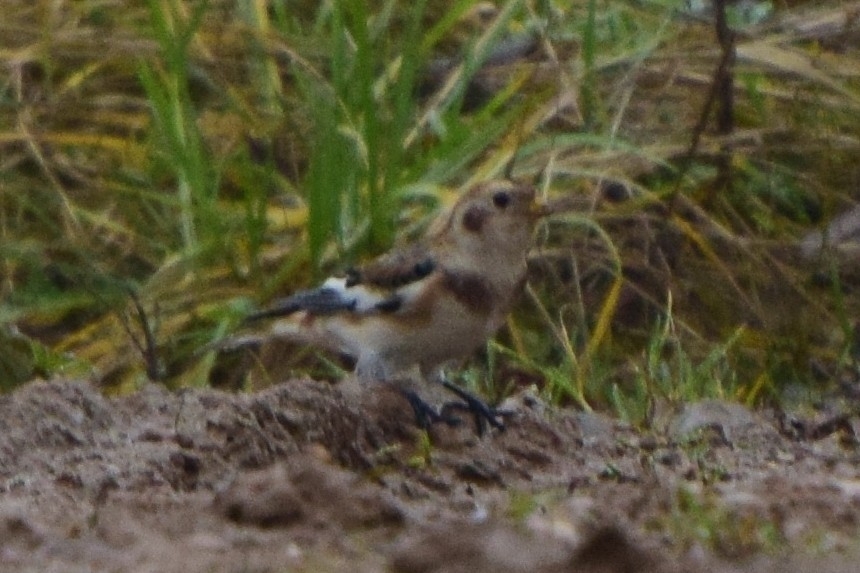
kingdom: Animalia
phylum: Chordata
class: Aves
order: Passeriformes
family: Calcariidae
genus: Plectrophenax
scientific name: Plectrophenax nivalis
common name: Snow bunting
